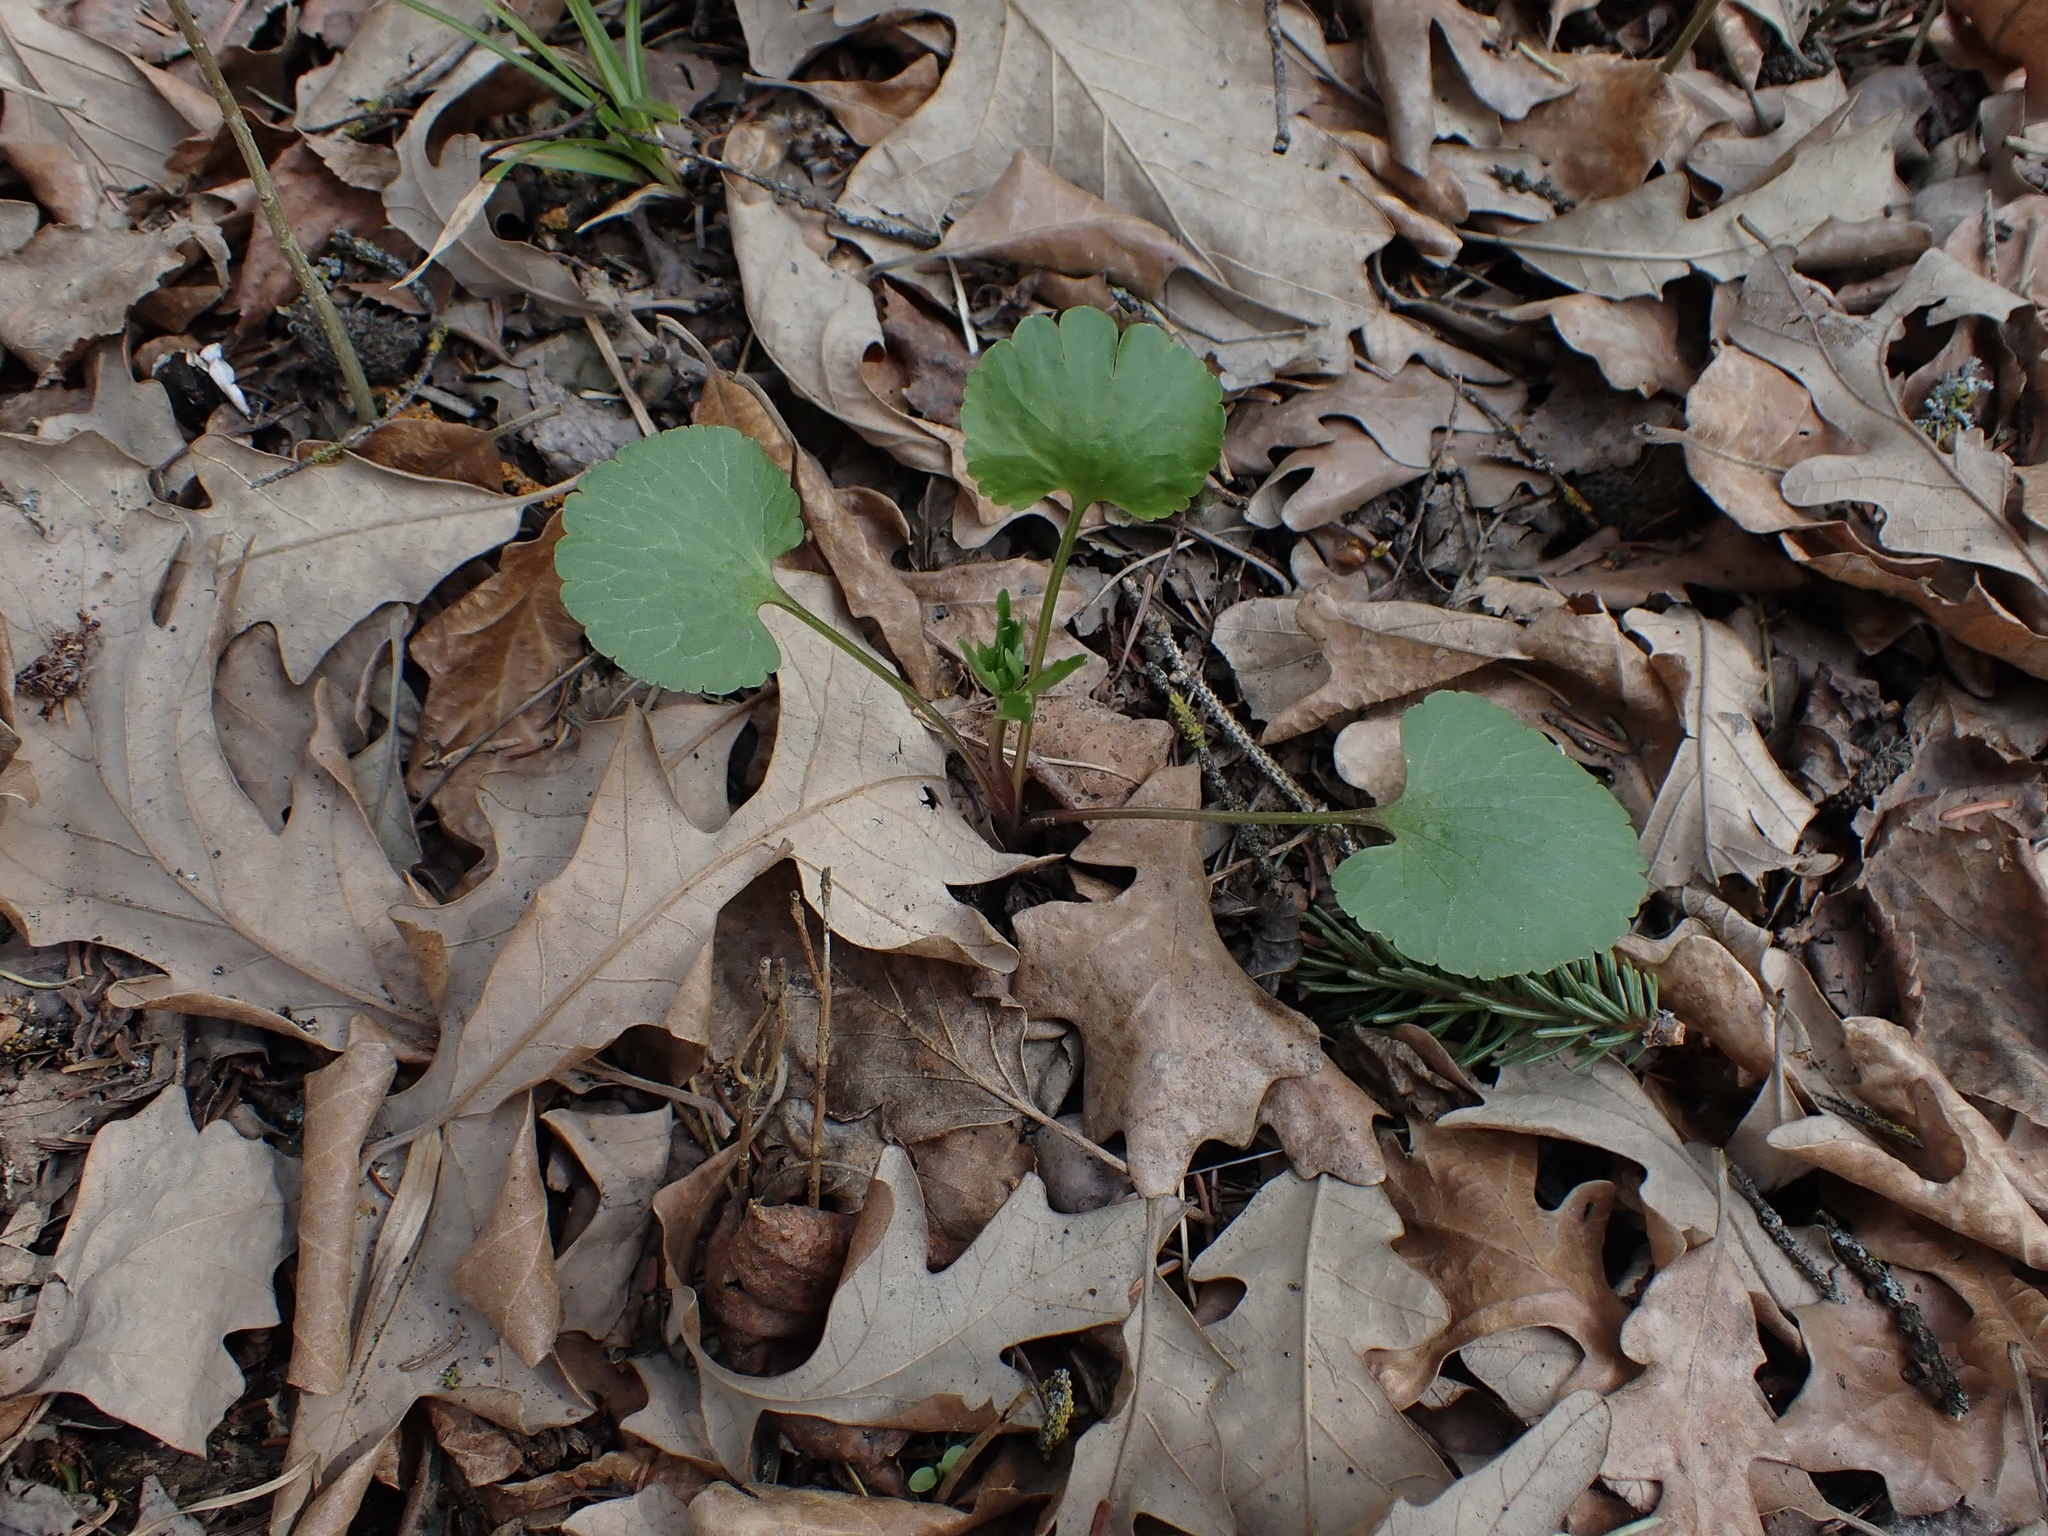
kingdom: Plantae
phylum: Tracheophyta
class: Magnoliopsida
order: Ranunculales
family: Ranunculaceae
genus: Ranunculus
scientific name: Ranunculus abortivus
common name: Early wood buttercup
